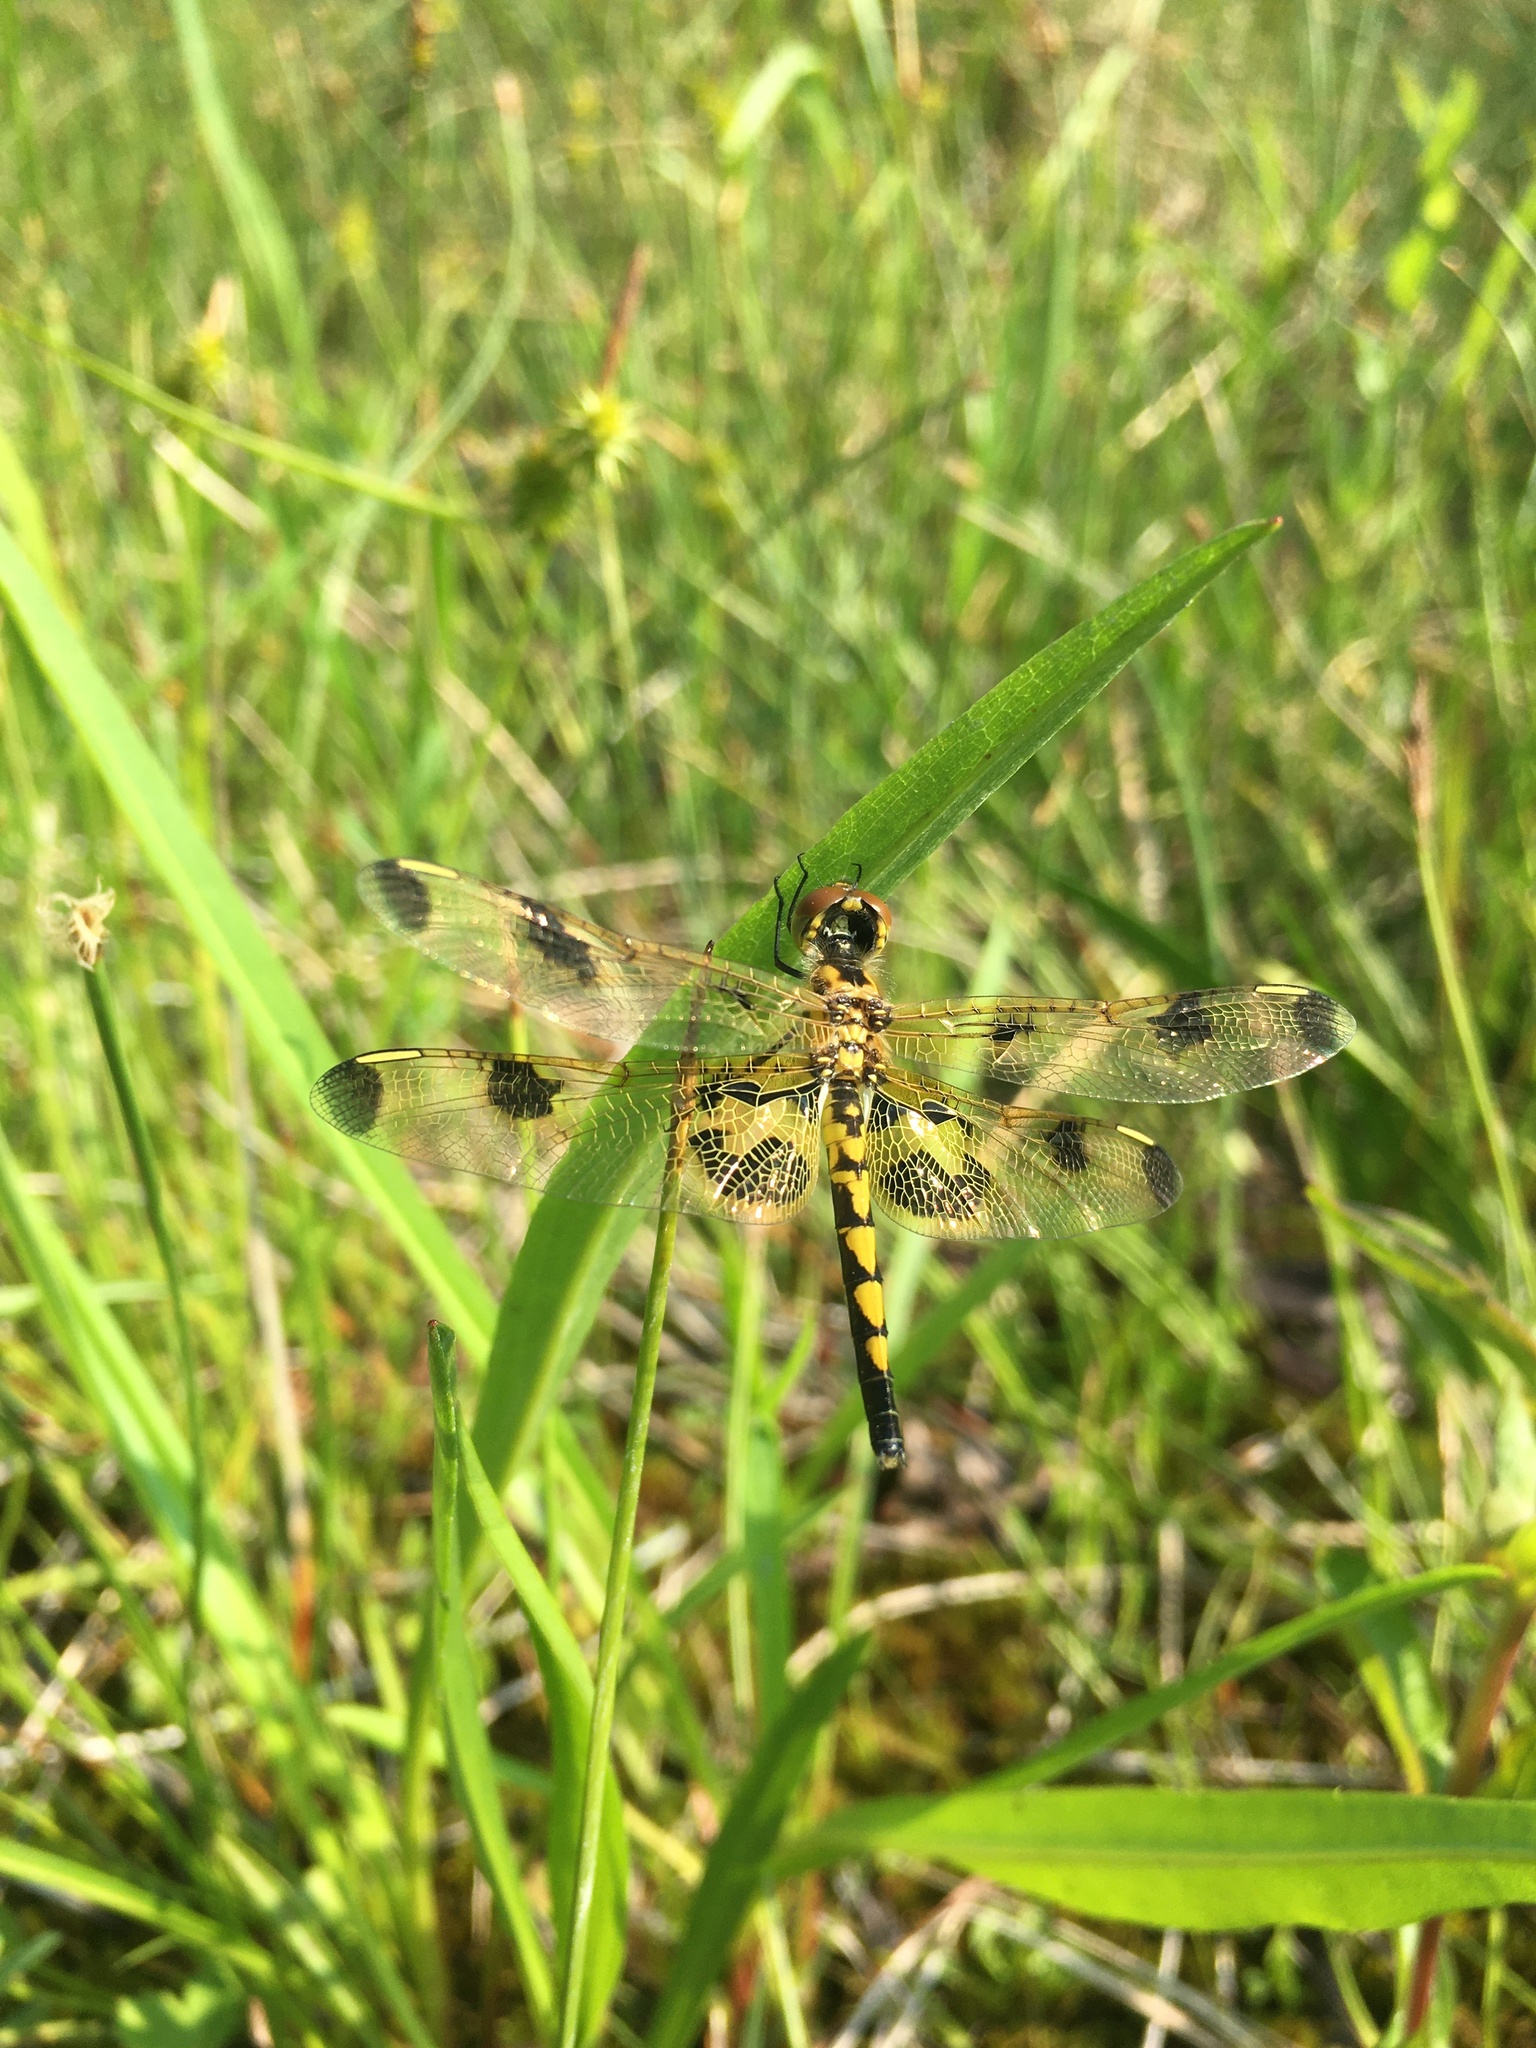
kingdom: Animalia
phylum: Arthropoda
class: Insecta
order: Odonata
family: Libellulidae
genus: Celithemis
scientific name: Celithemis elisa
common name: Calico pennant
